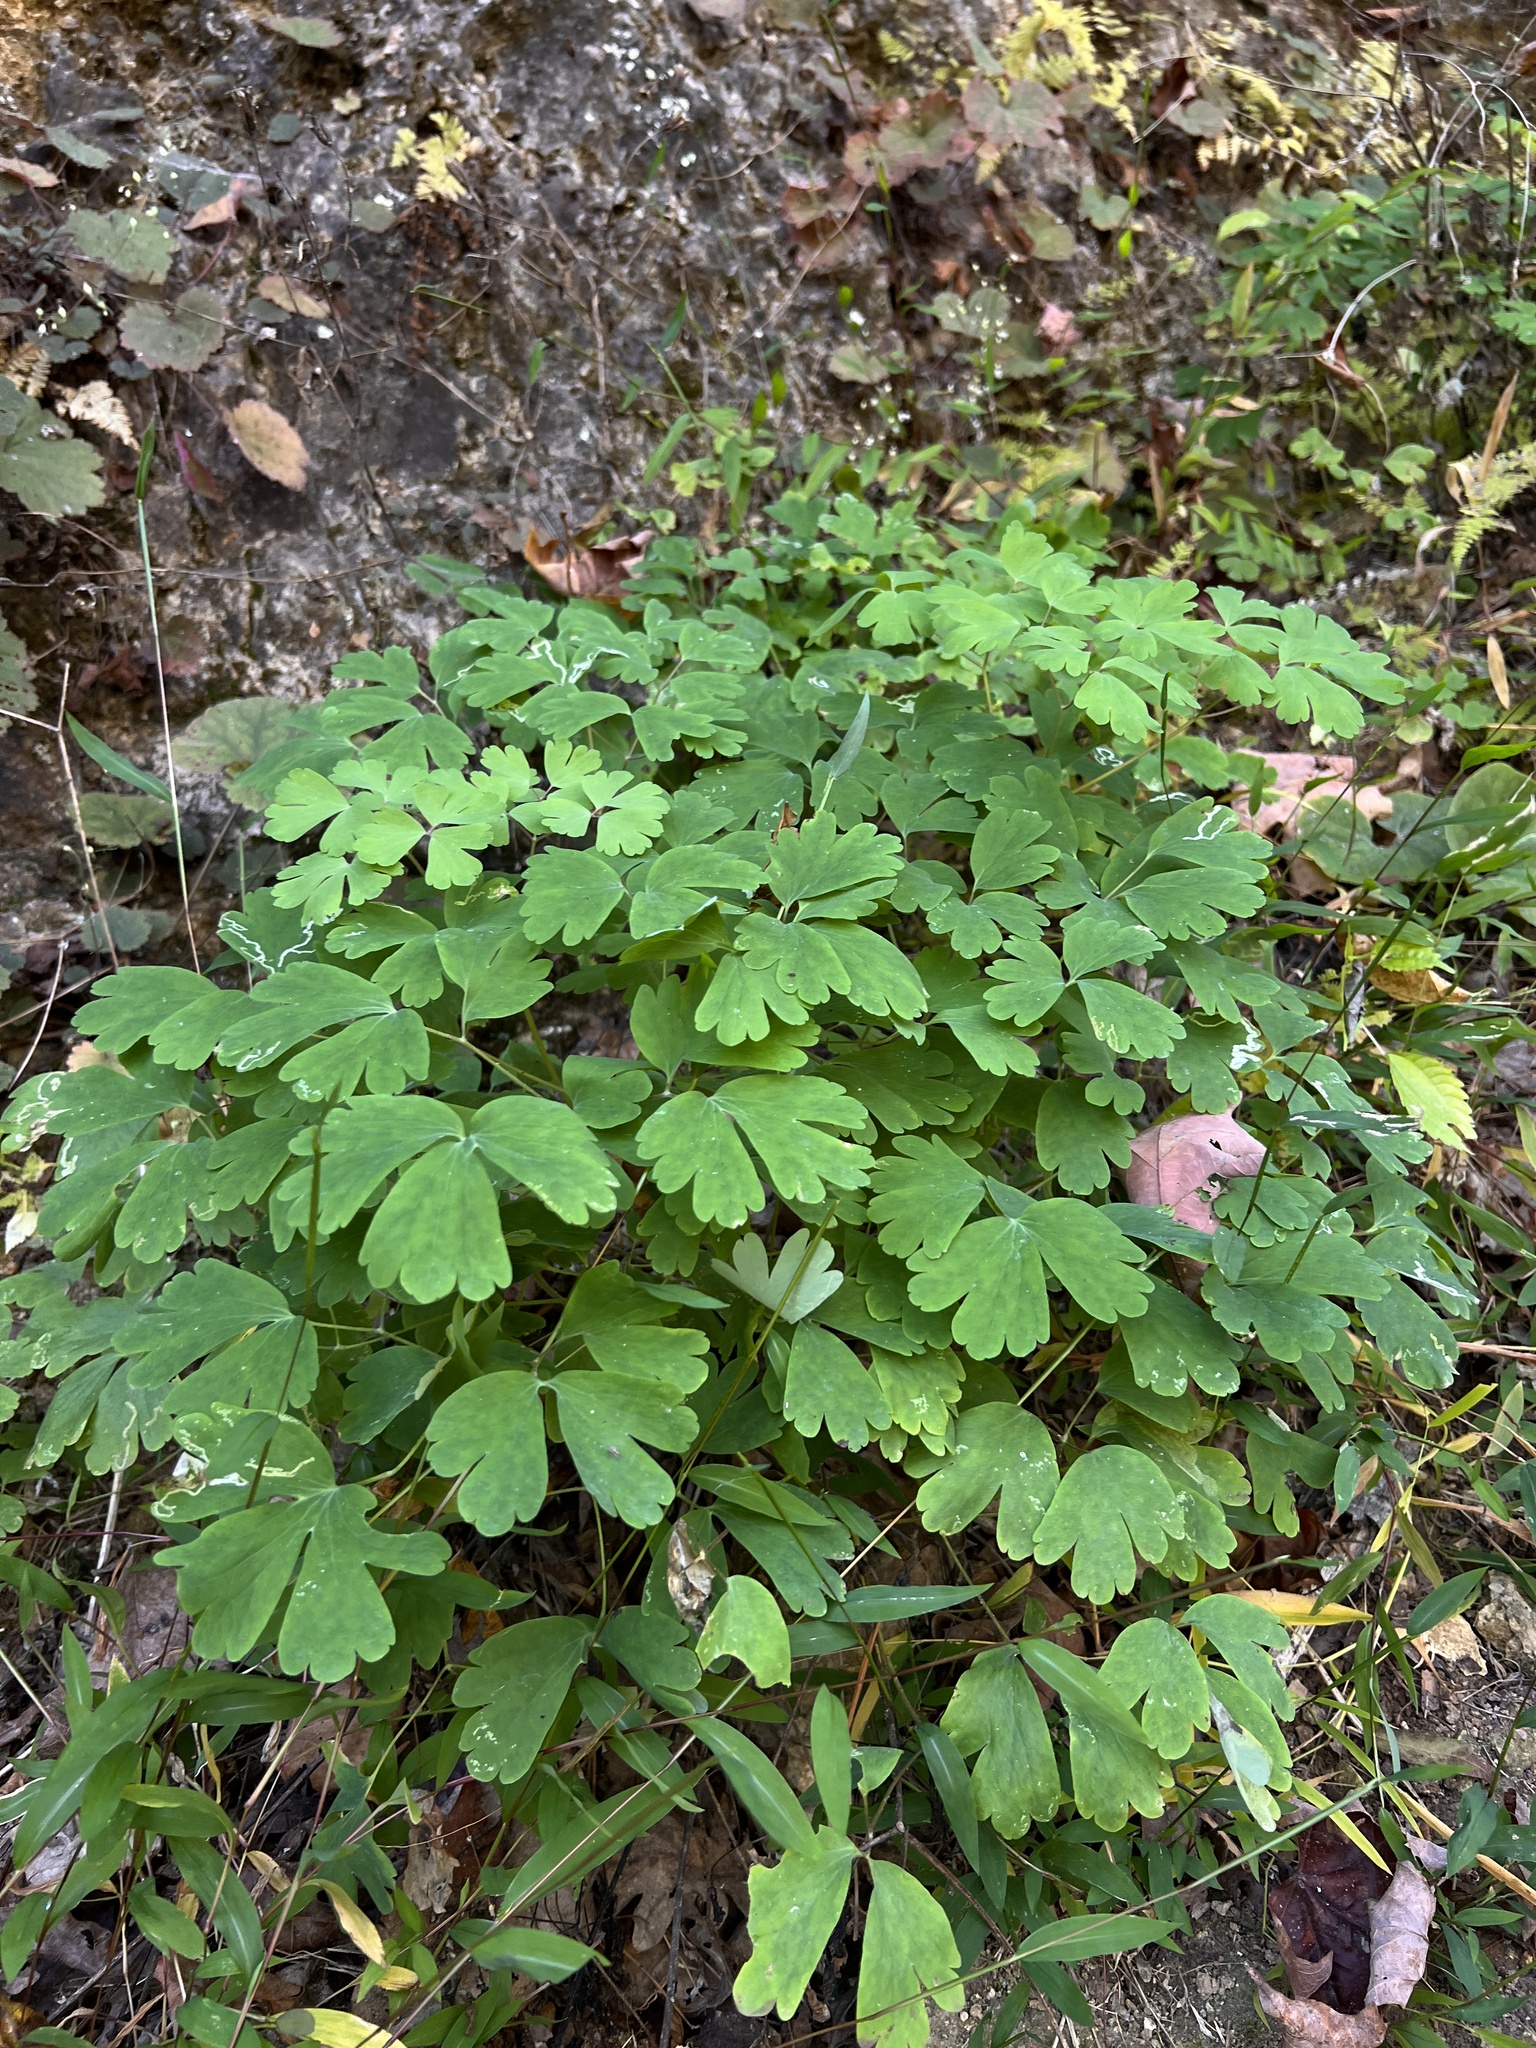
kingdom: Plantae
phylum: Tracheophyta
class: Magnoliopsida
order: Ranunculales
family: Ranunculaceae
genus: Aquilegia
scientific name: Aquilegia canadensis
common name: American columbine
